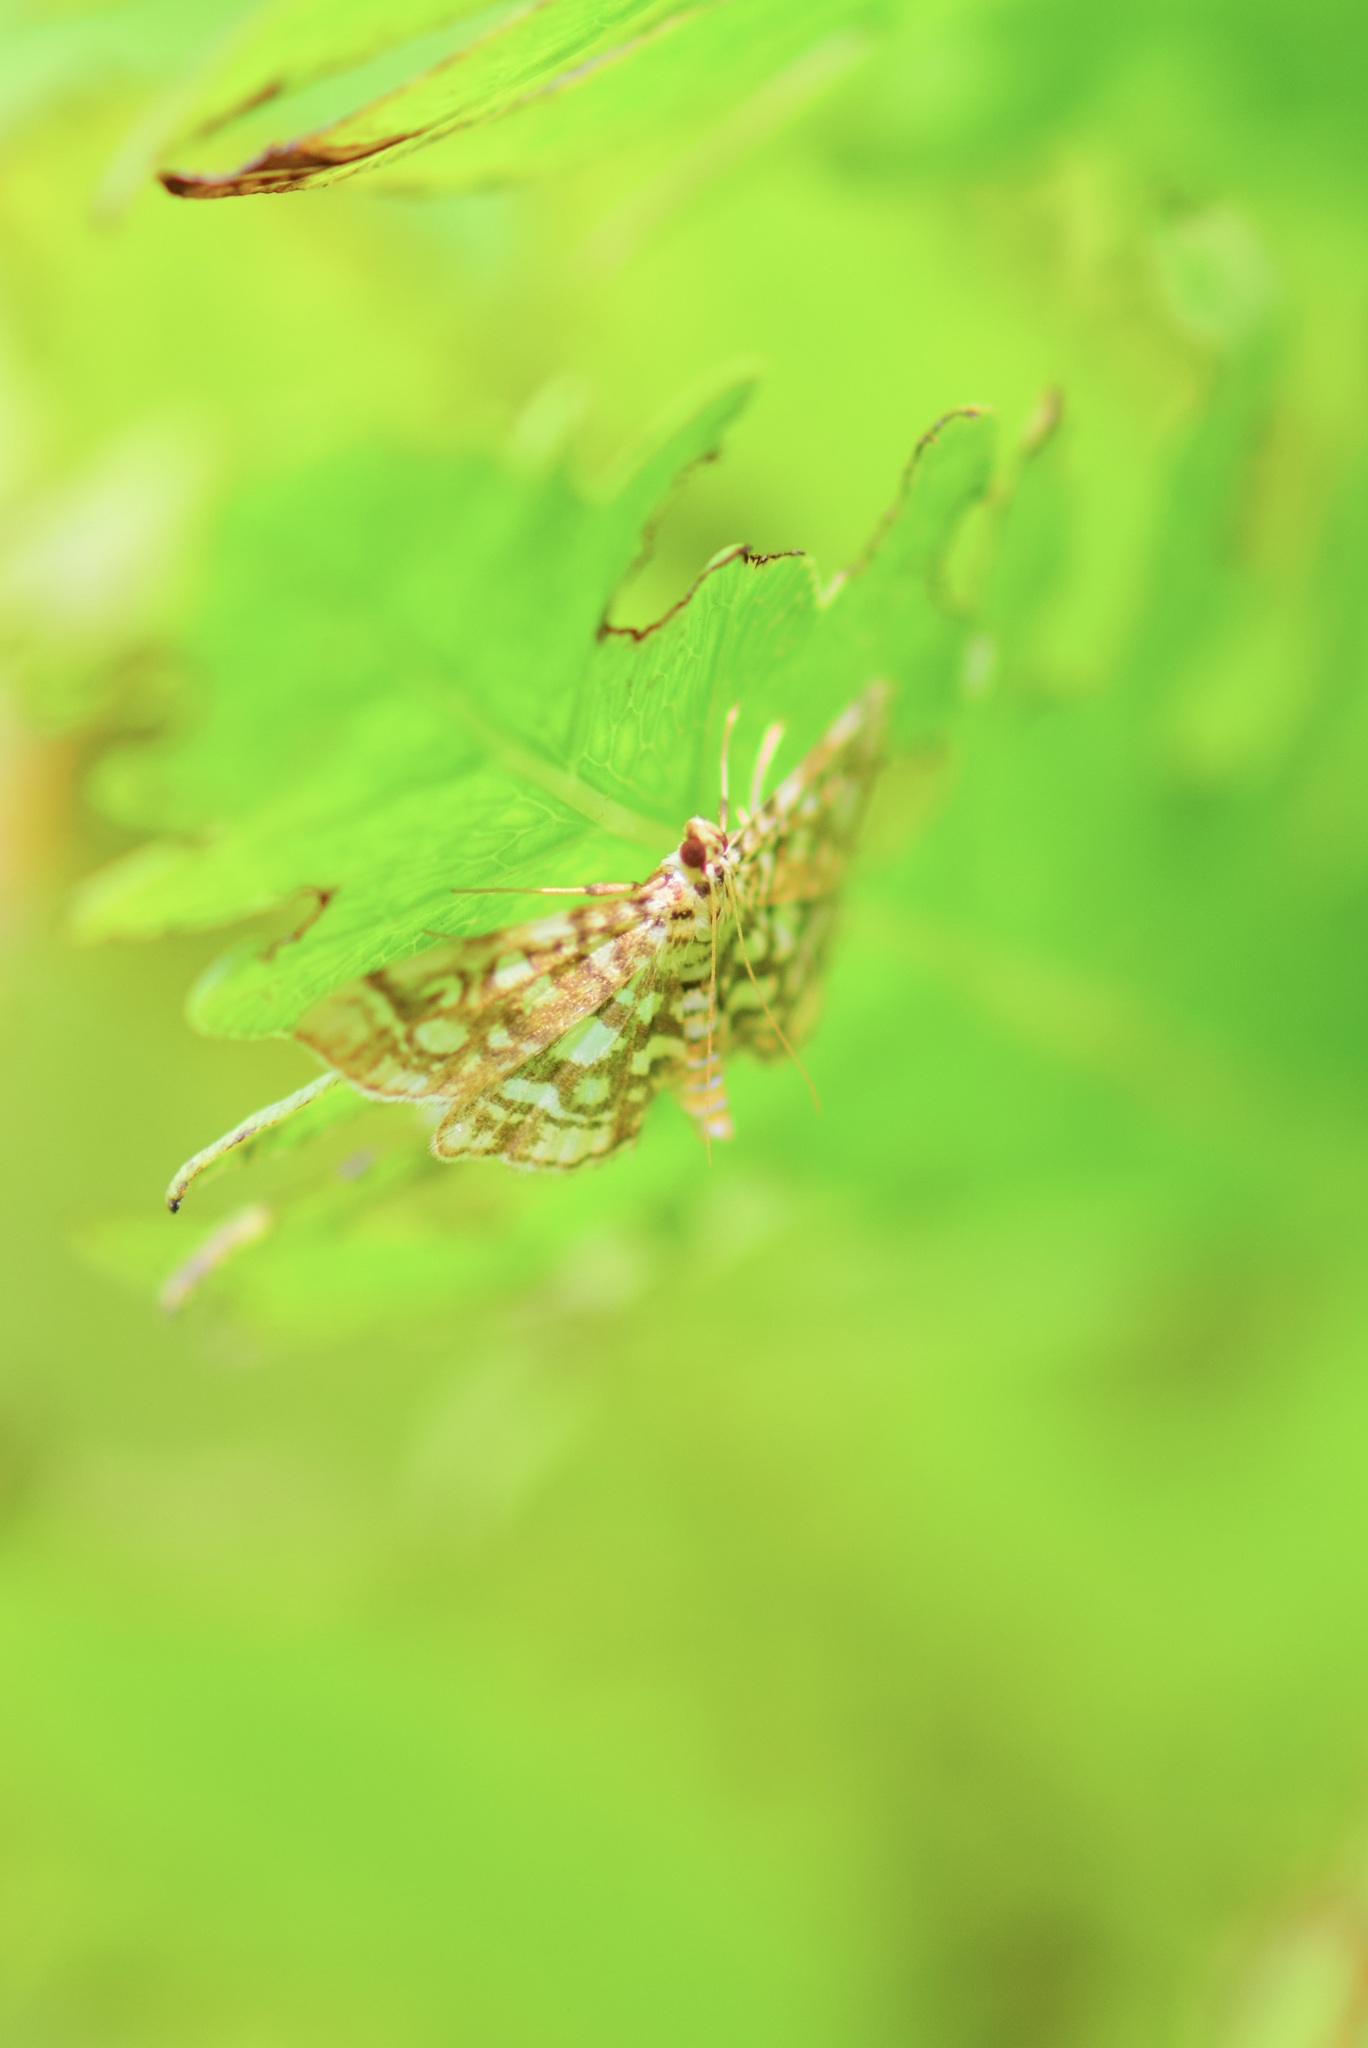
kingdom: Animalia
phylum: Arthropoda
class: Insecta
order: Lepidoptera
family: Crambidae
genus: Lygropia
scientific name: Lygropia rivulalis
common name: Bog lygropia moth
